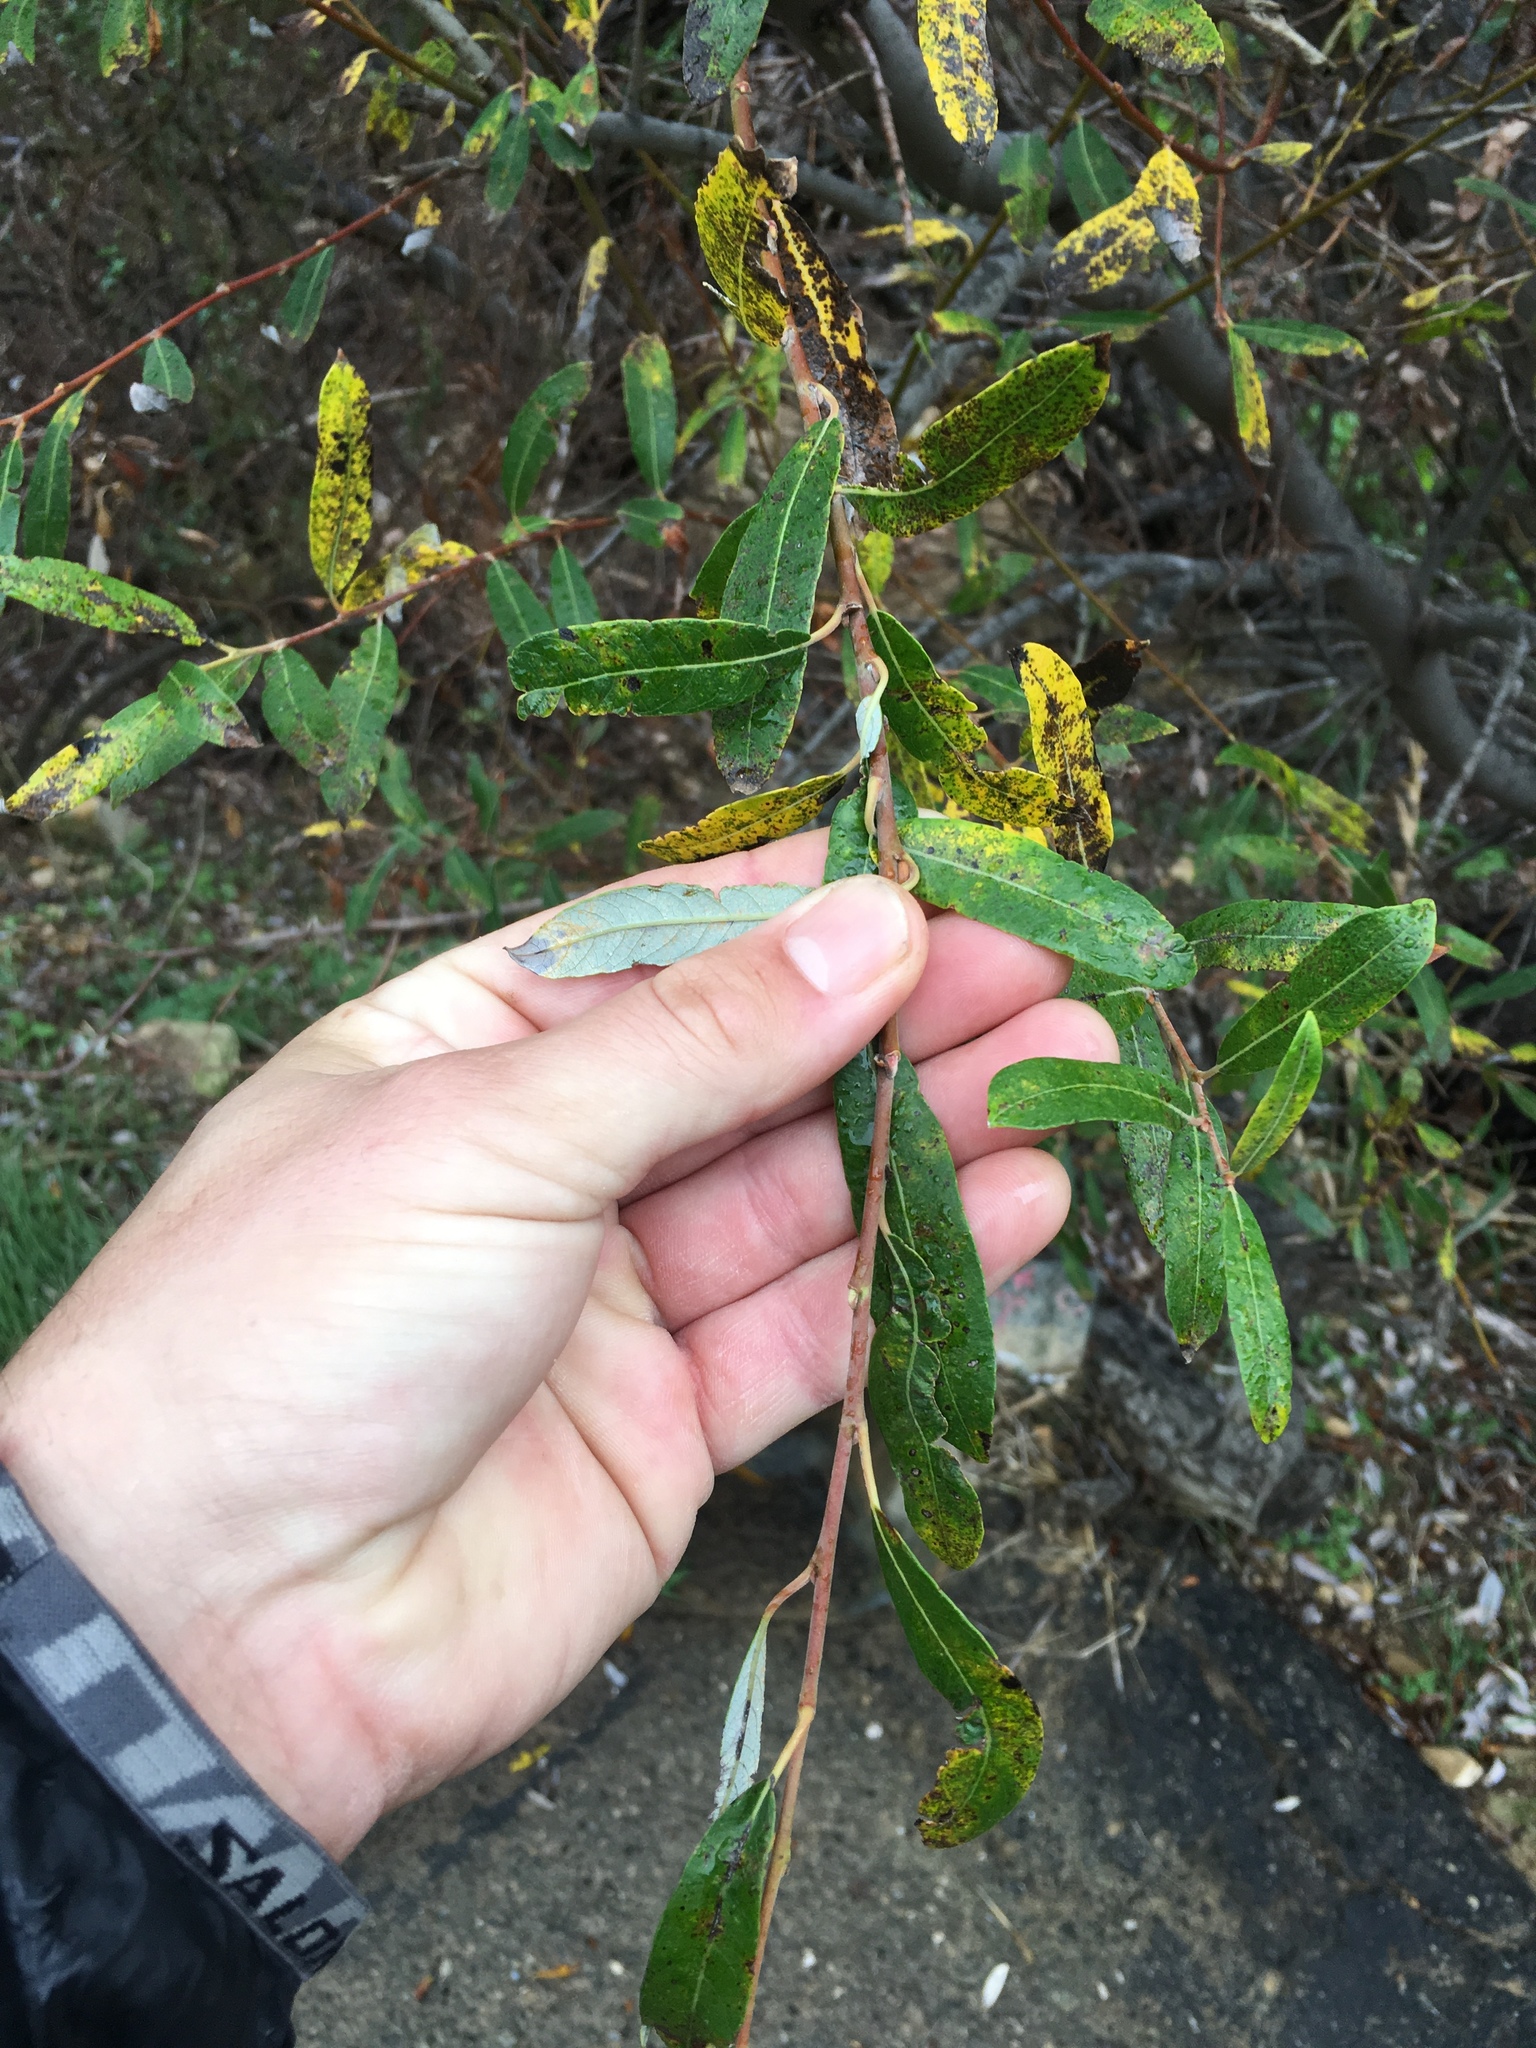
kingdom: Plantae
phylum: Tracheophyta
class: Magnoliopsida
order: Malpighiales
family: Salicaceae
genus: Salix
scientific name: Salix lasiolepis
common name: Arroyo willow
